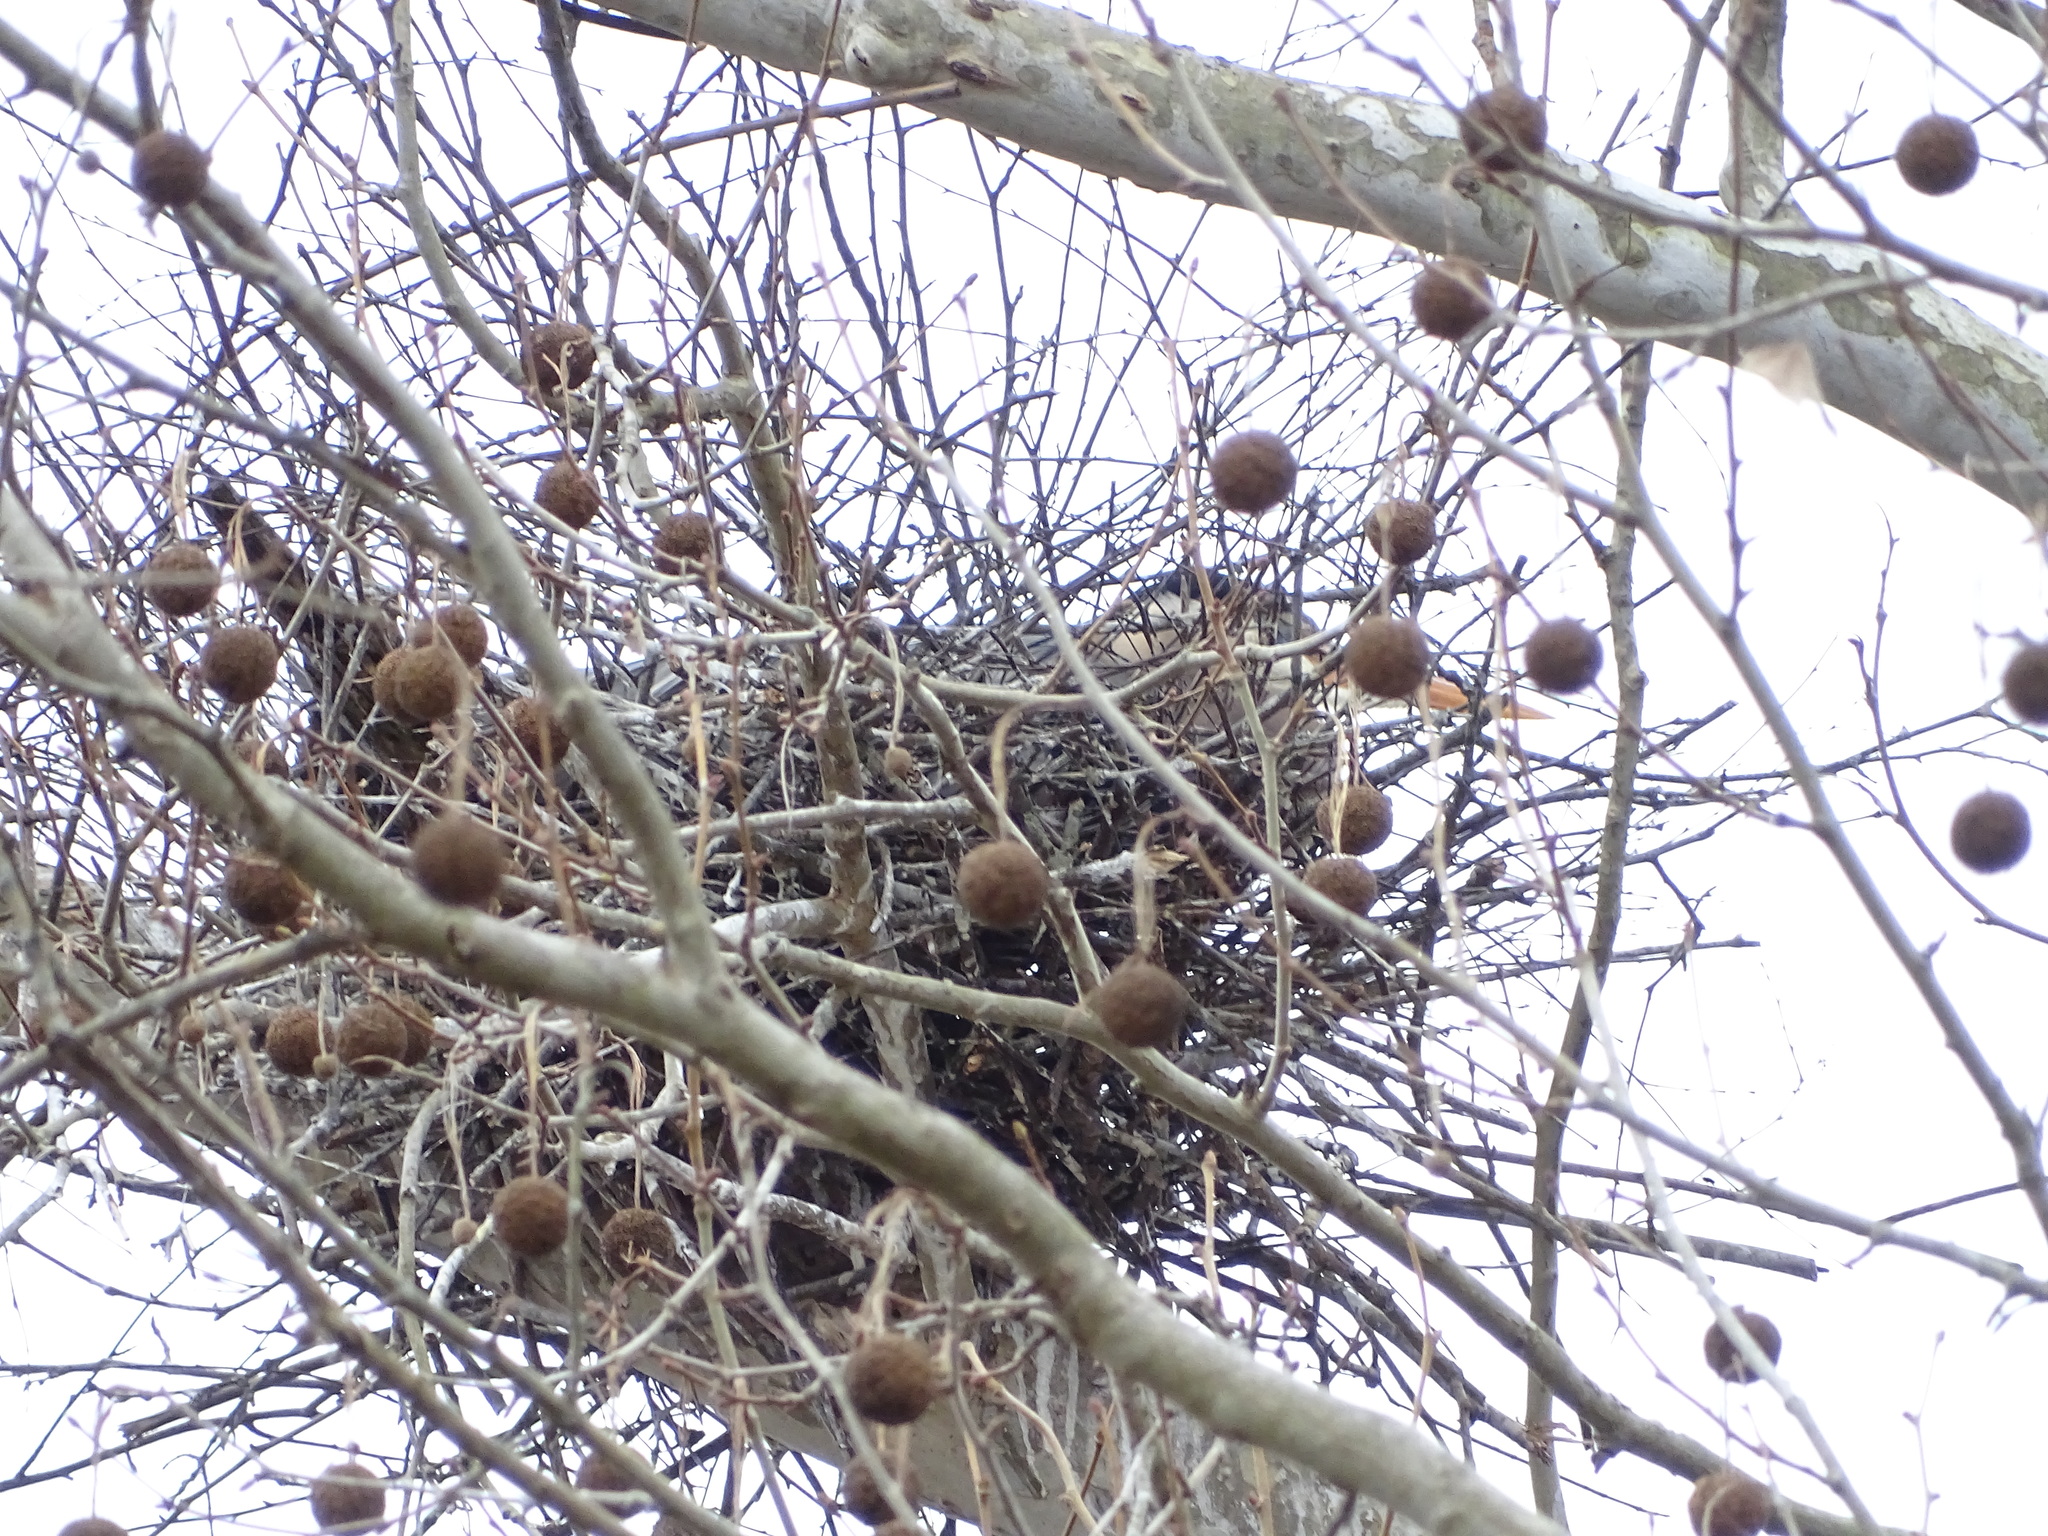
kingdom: Animalia
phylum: Chordata
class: Aves
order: Pelecaniformes
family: Ardeidae
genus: Ardea
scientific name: Ardea herodias
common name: Great blue heron
